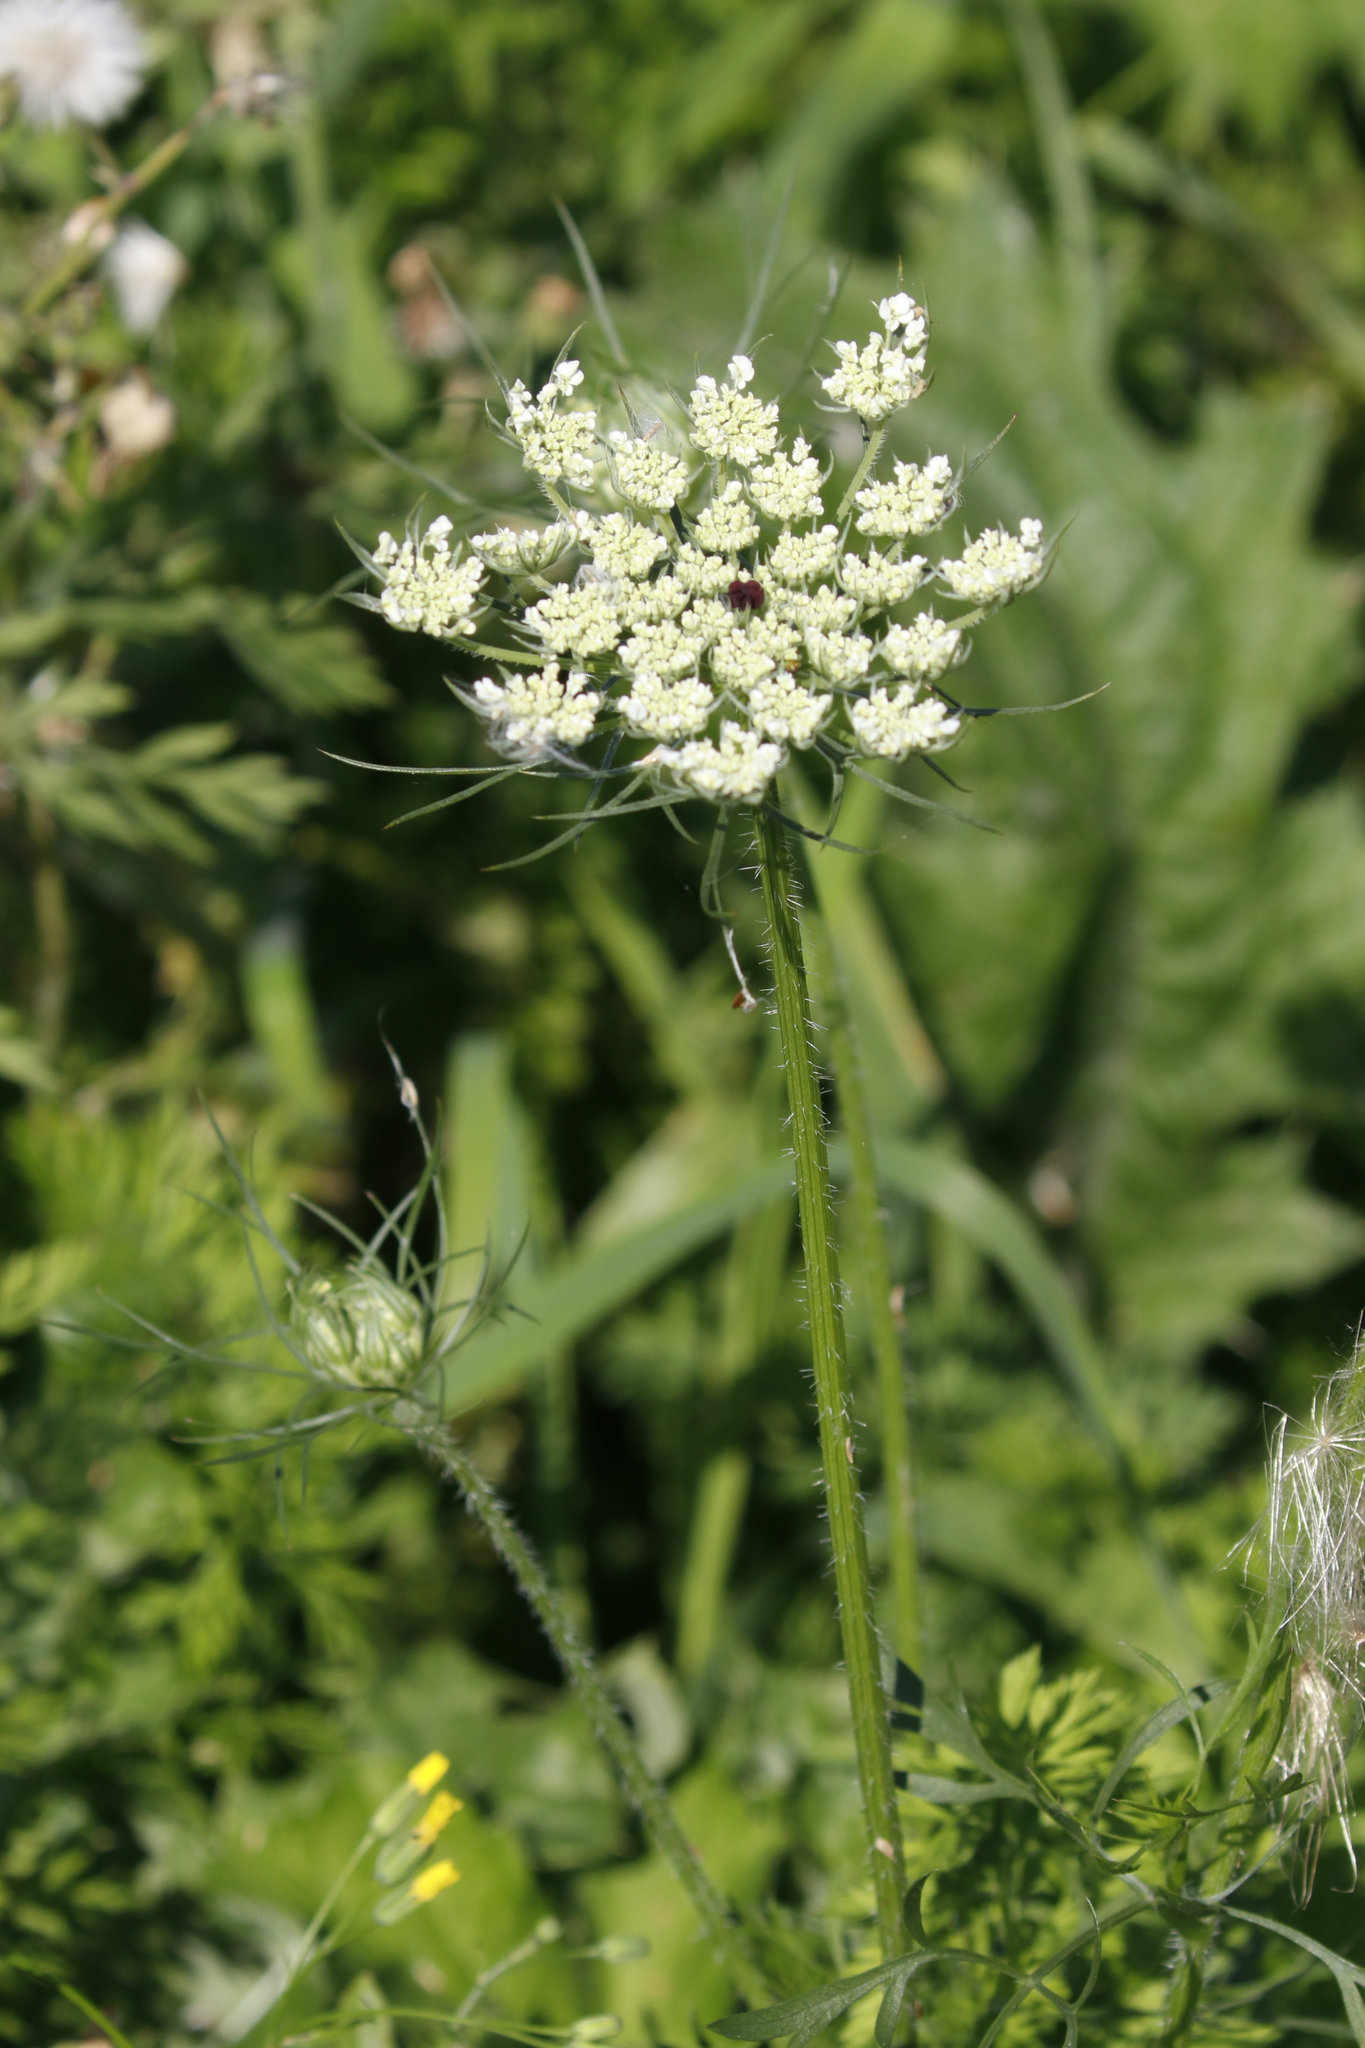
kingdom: Plantae
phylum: Tracheophyta
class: Magnoliopsida
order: Apiales
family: Apiaceae
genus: Daucus
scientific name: Daucus carota
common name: Wild carrot
